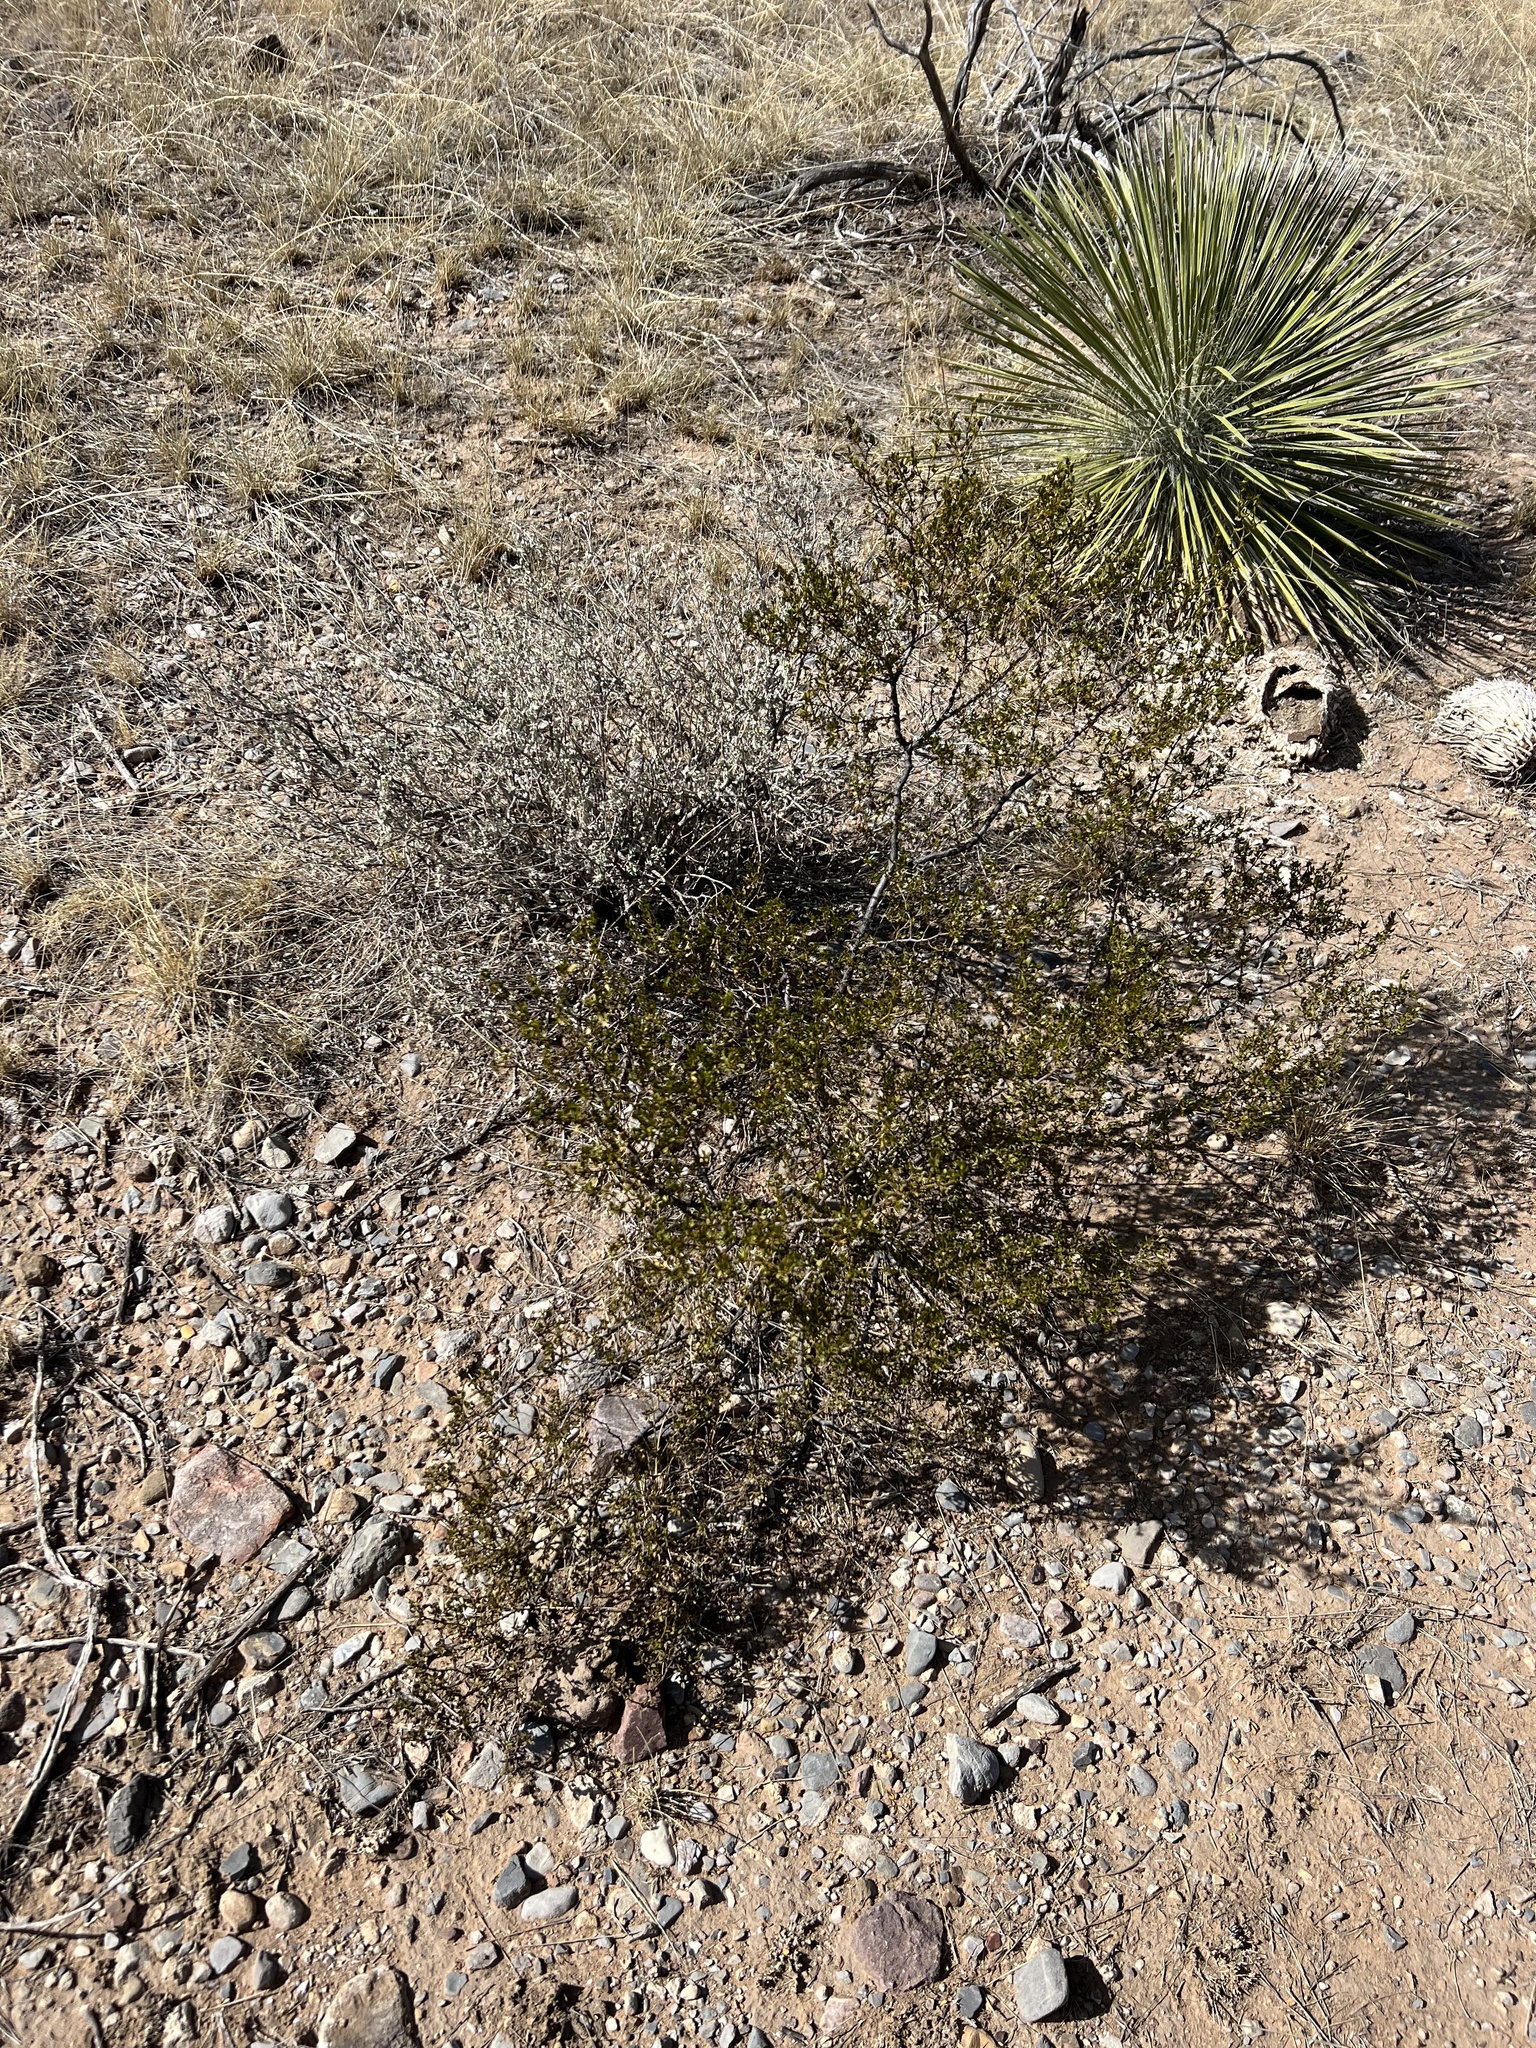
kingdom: Plantae
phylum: Tracheophyta
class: Magnoliopsida
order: Zygophyllales
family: Zygophyllaceae
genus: Larrea
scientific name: Larrea tridentata
